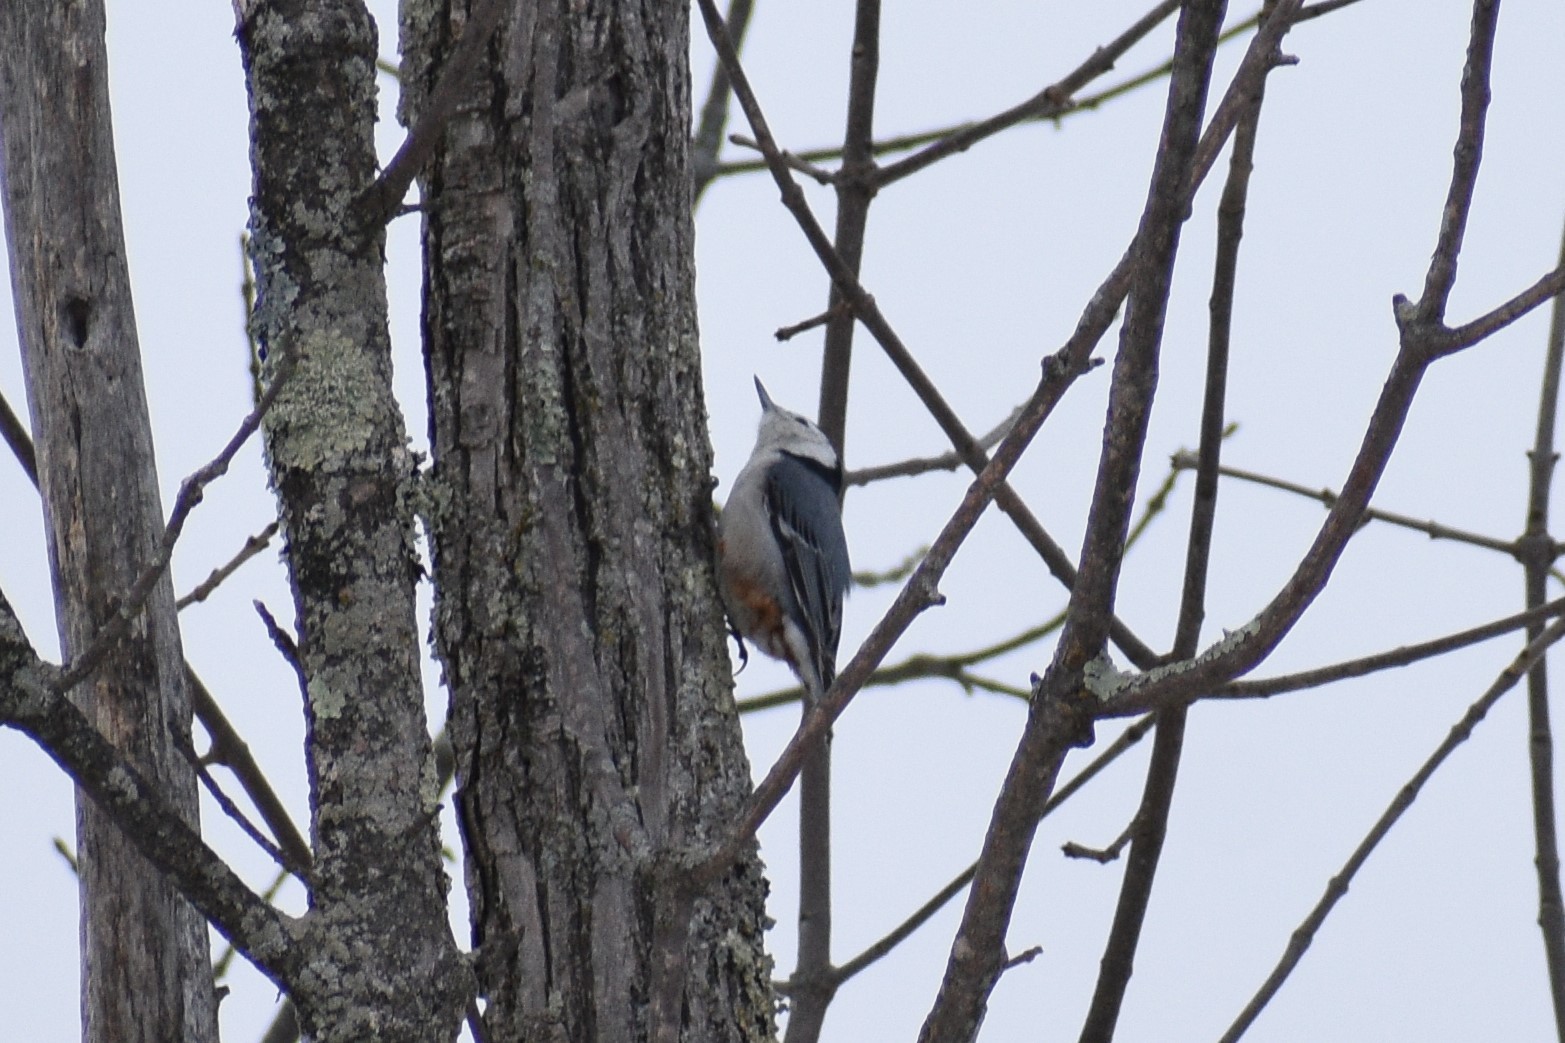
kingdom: Animalia
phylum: Chordata
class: Aves
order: Passeriformes
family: Sittidae
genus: Sitta
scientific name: Sitta carolinensis
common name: White-breasted nuthatch
